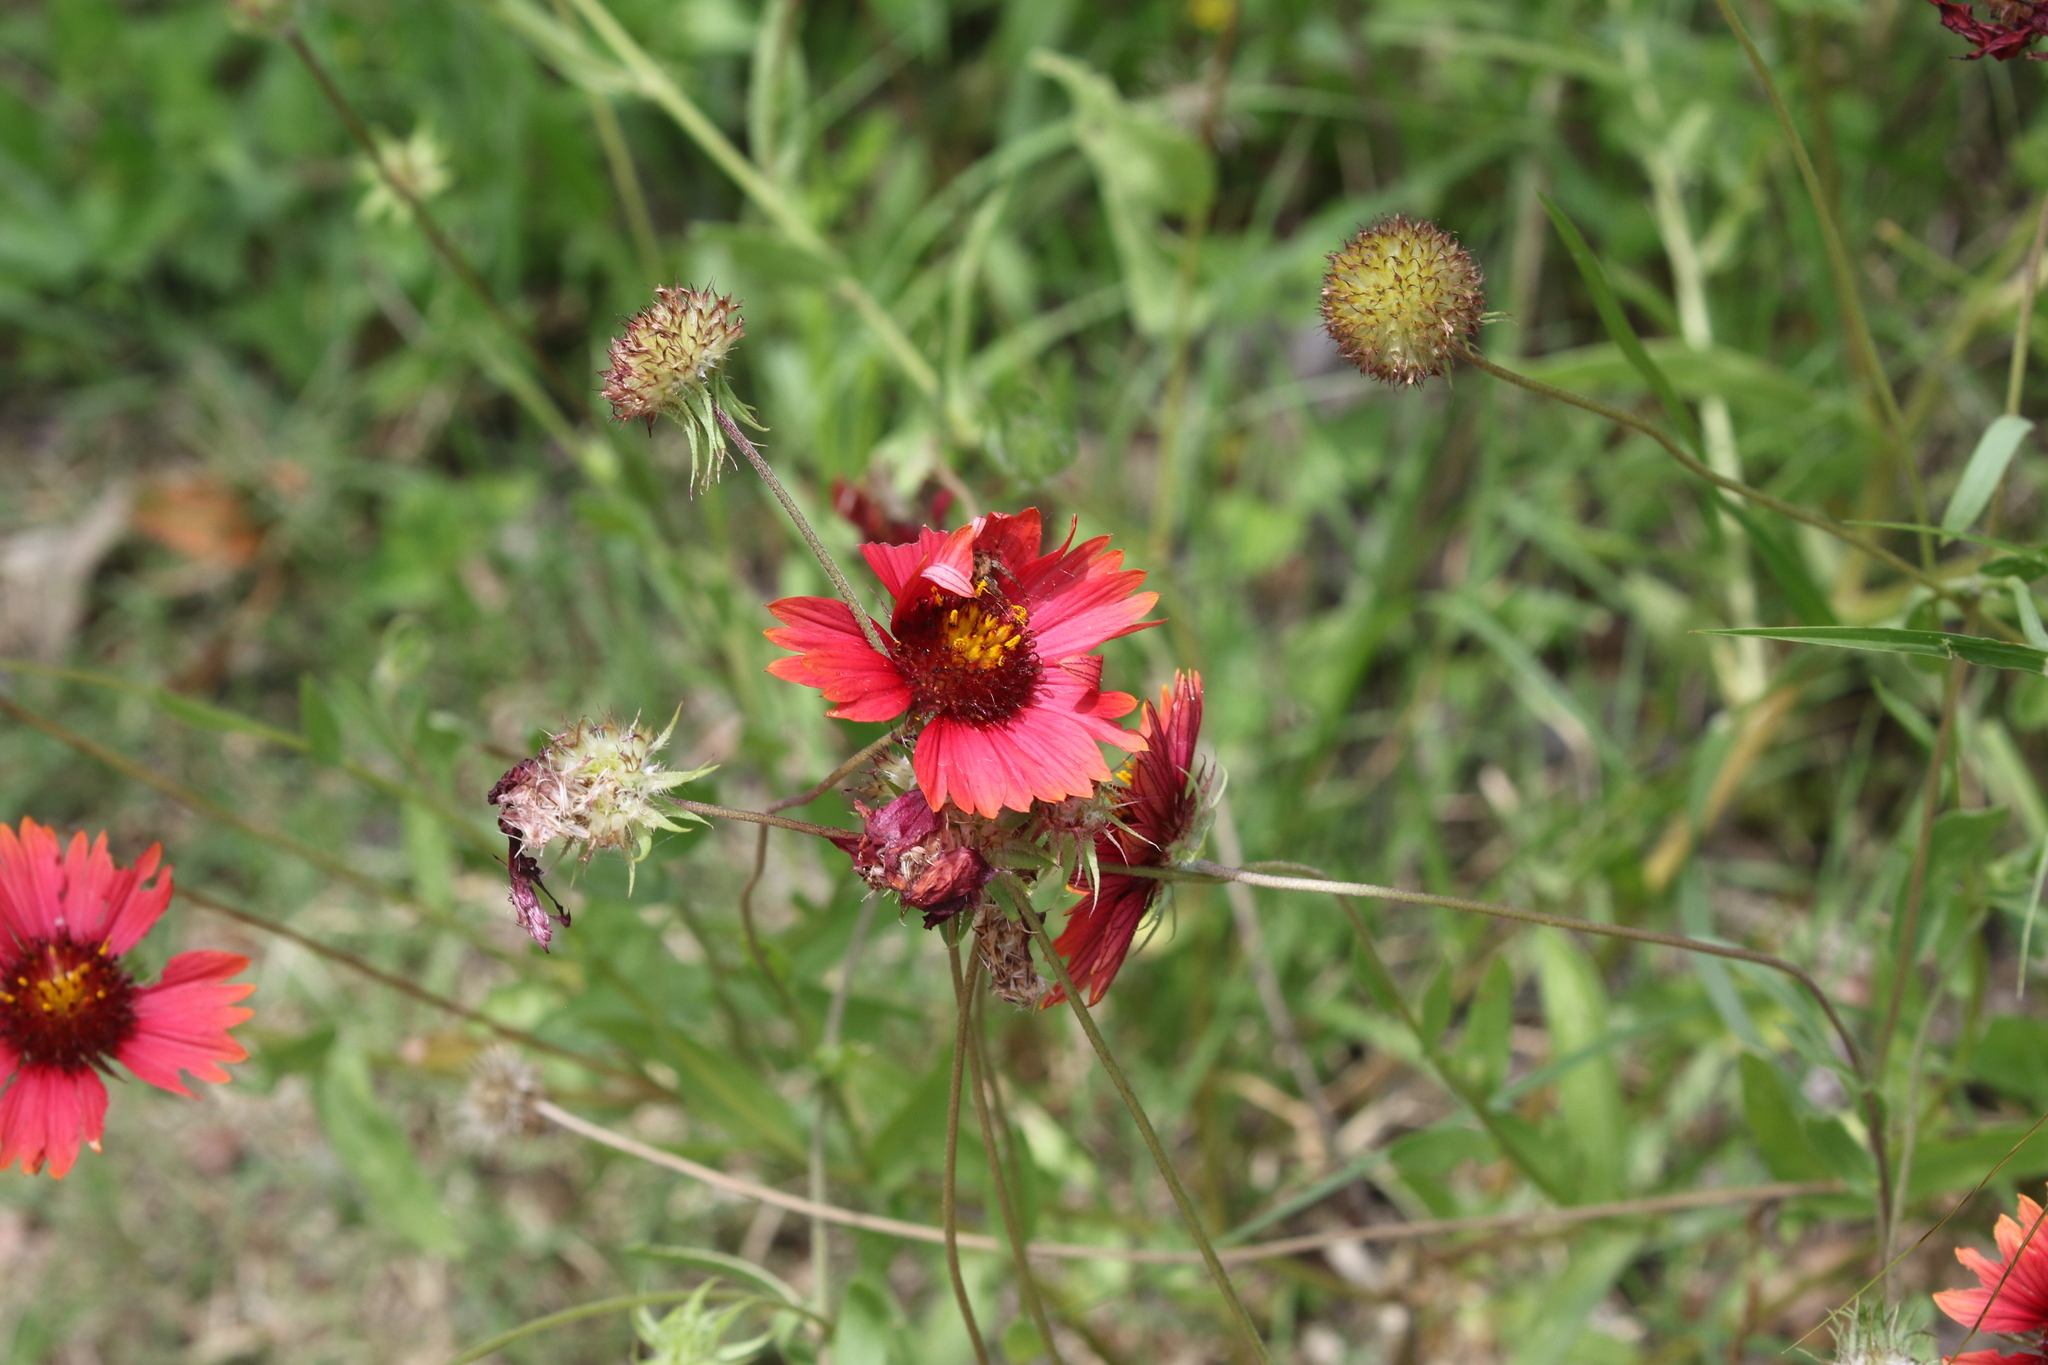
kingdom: Plantae
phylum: Tracheophyta
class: Magnoliopsida
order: Asterales
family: Asteraceae
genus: Gaillardia
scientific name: Gaillardia amblyodon
